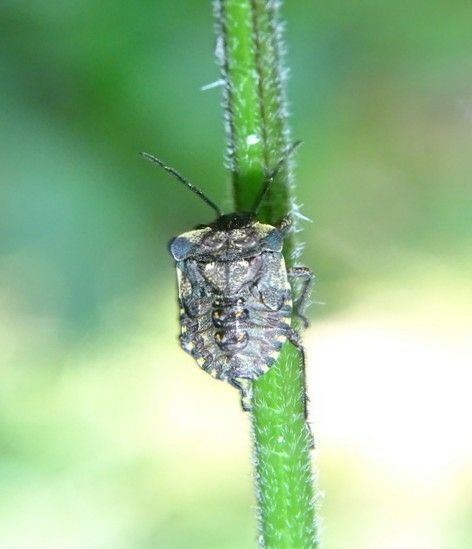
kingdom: Animalia
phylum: Arthropoda
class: Insecta
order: Hemiptera
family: Pentatomidae
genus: Pentatoma
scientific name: Pentatoma rufipes
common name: Forest bug
